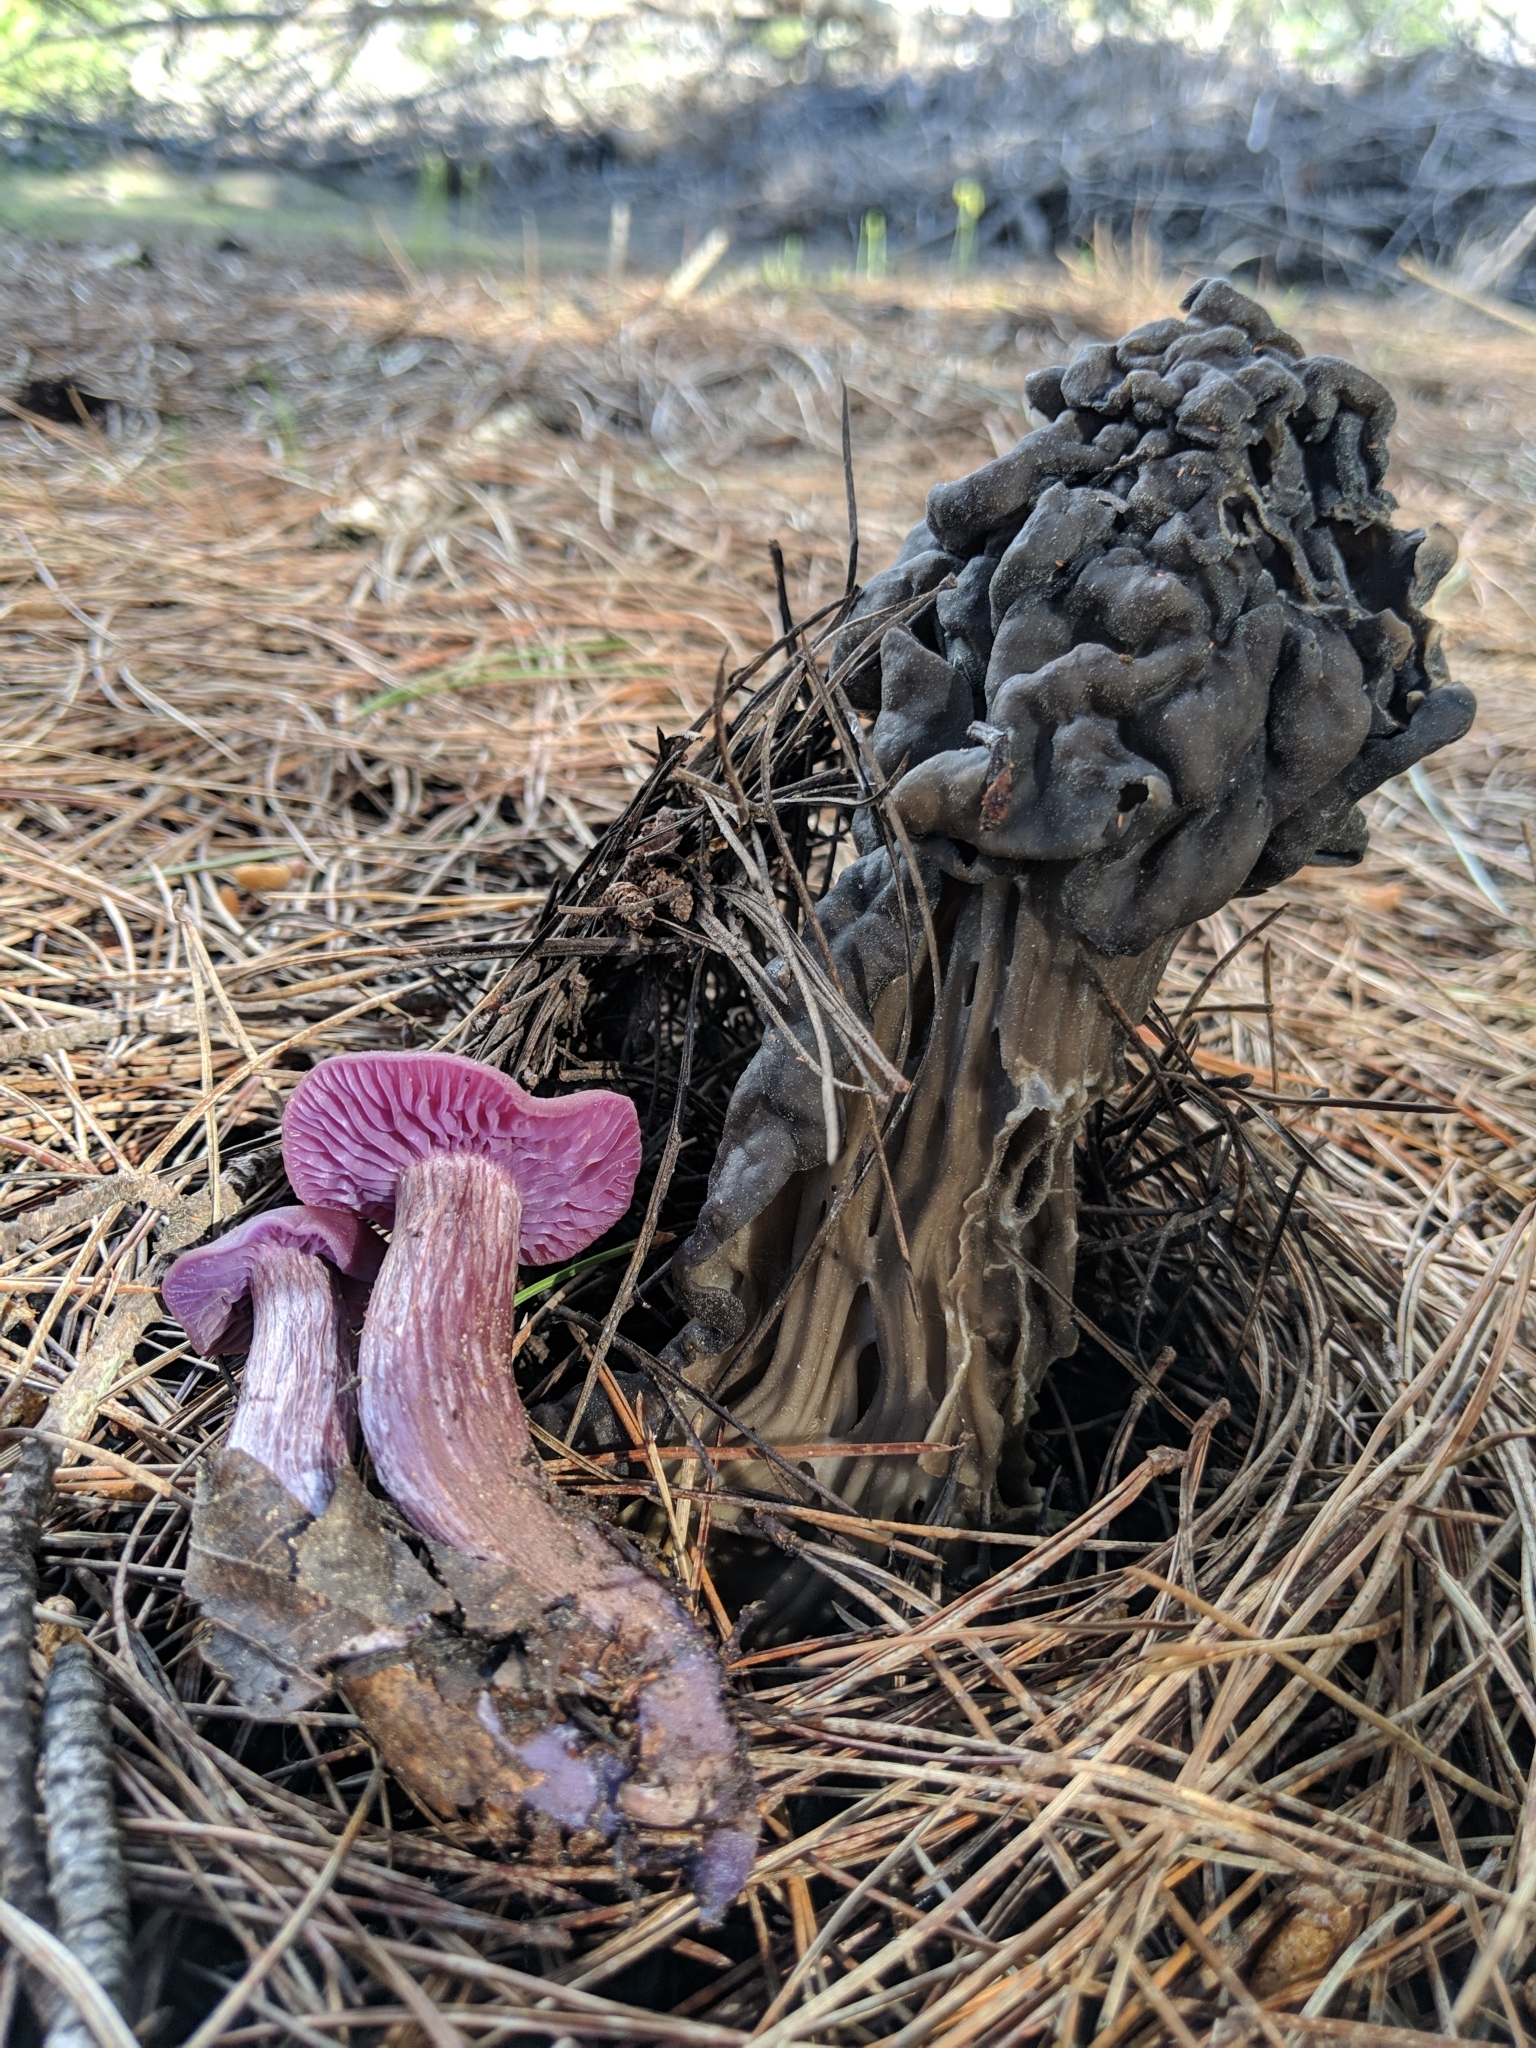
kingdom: Fungi
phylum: Basidiomycota
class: Agaricomycetes
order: Agaricales
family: Hydnangiaceae
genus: Laccaria
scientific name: Laccaria amethysteo-occidentalis
